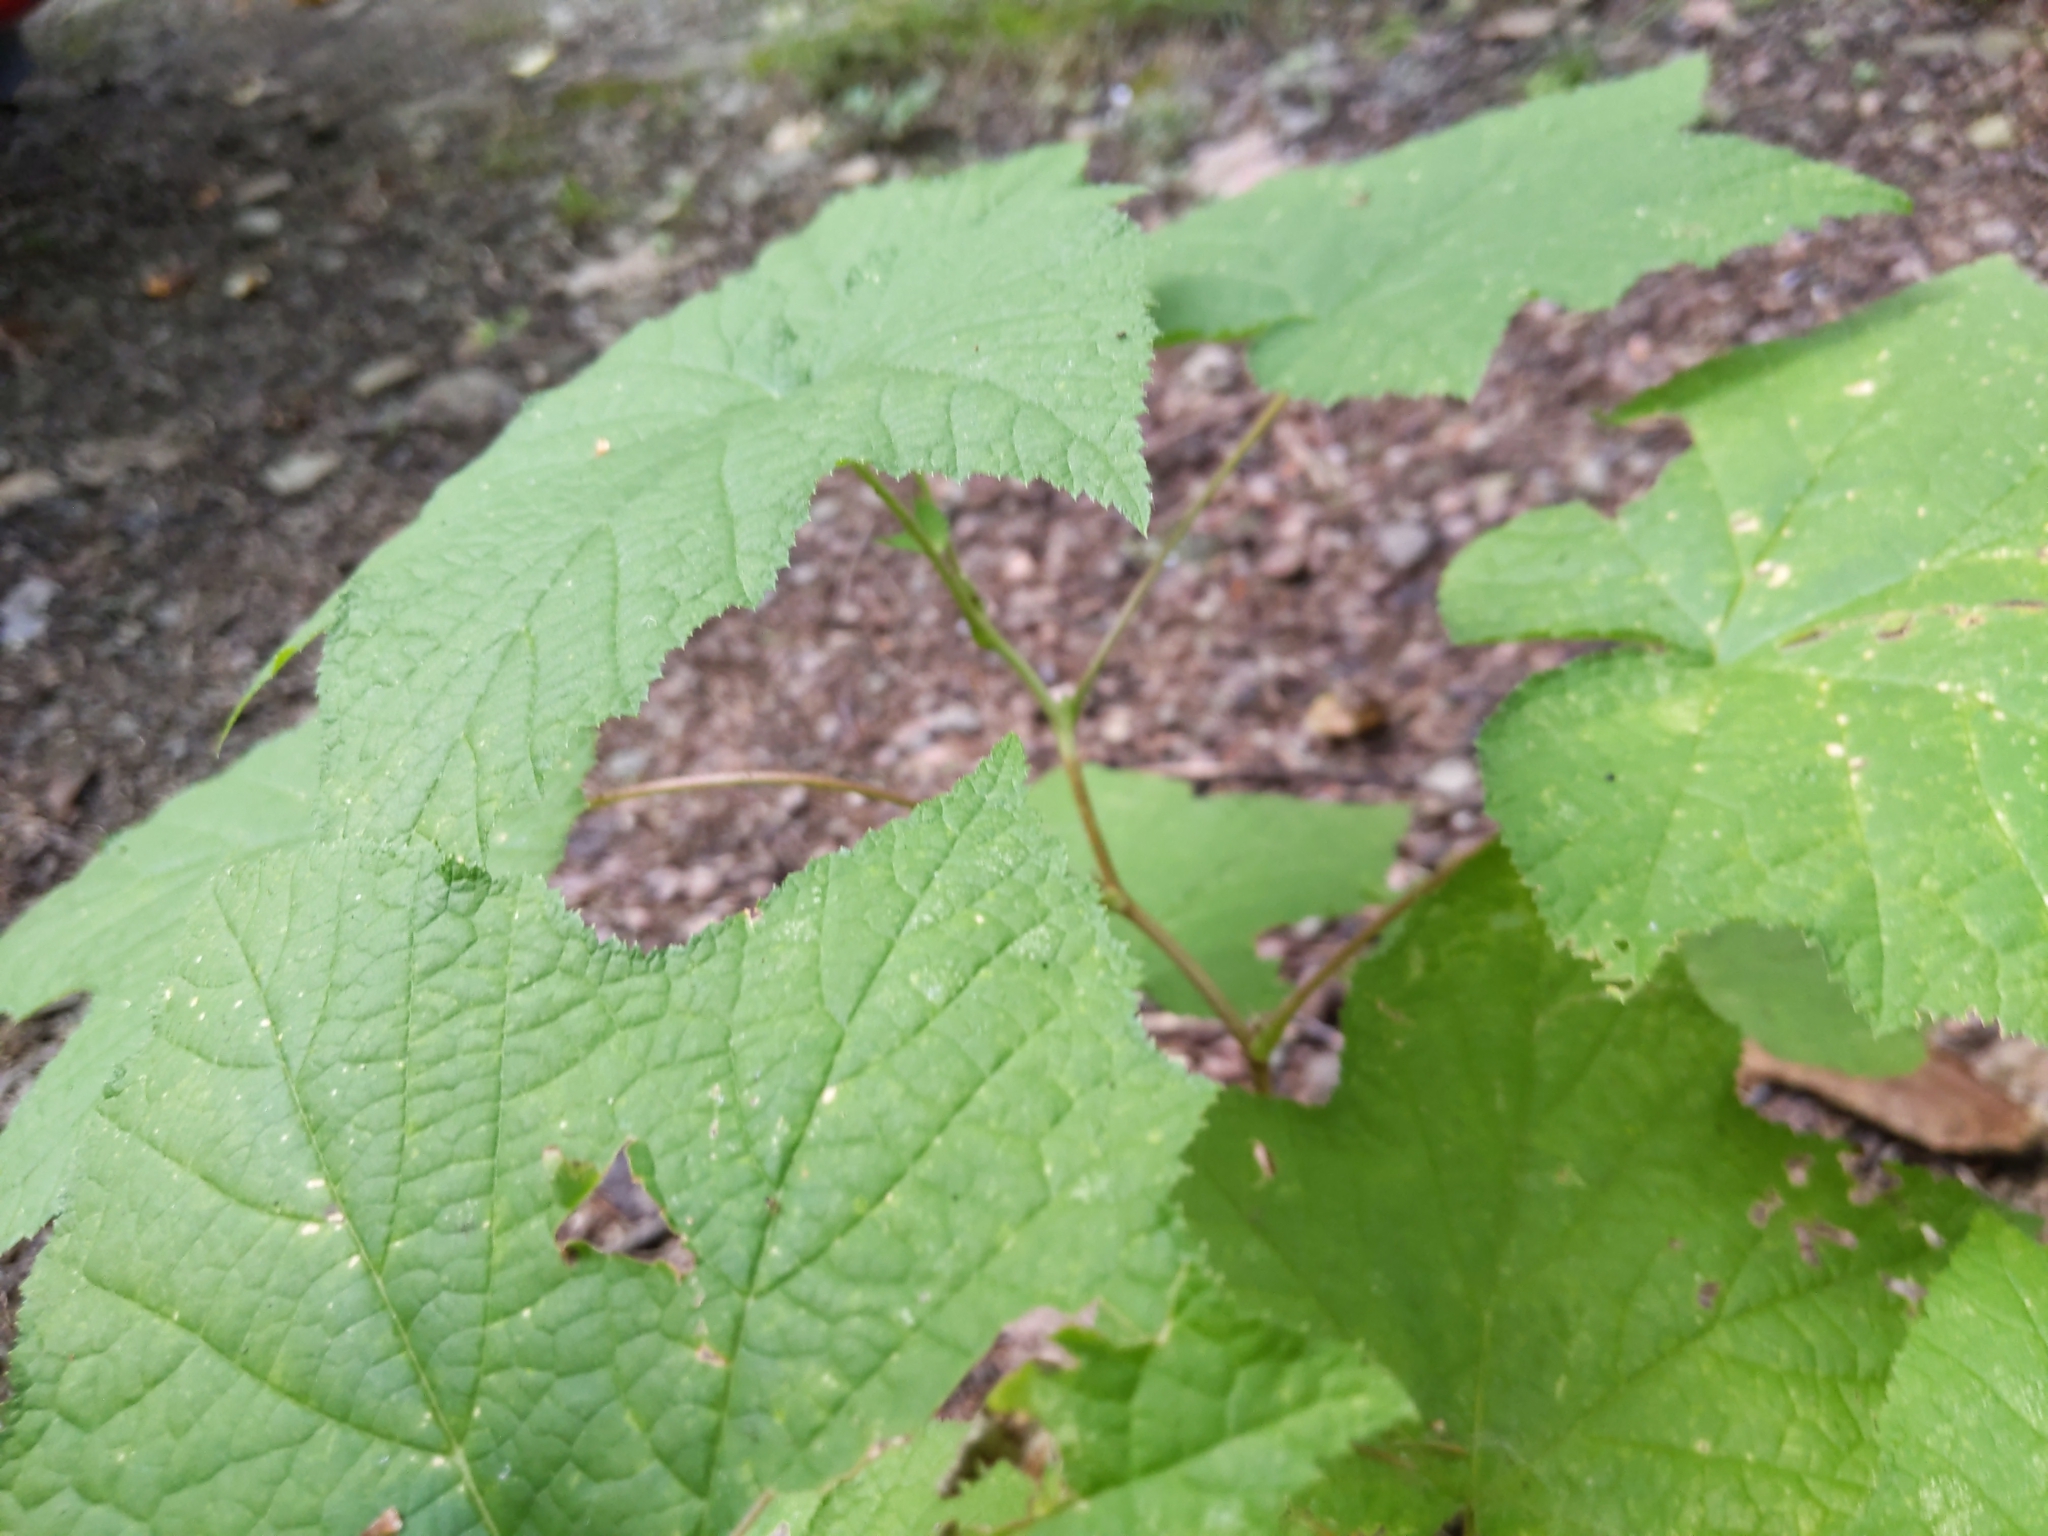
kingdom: Plantae
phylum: Tracheophyta
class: Magnoliopsida
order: Rosales
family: Rosaceae
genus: Rubus
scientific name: Rubus odoratus
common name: Purple-flowered raspberry
